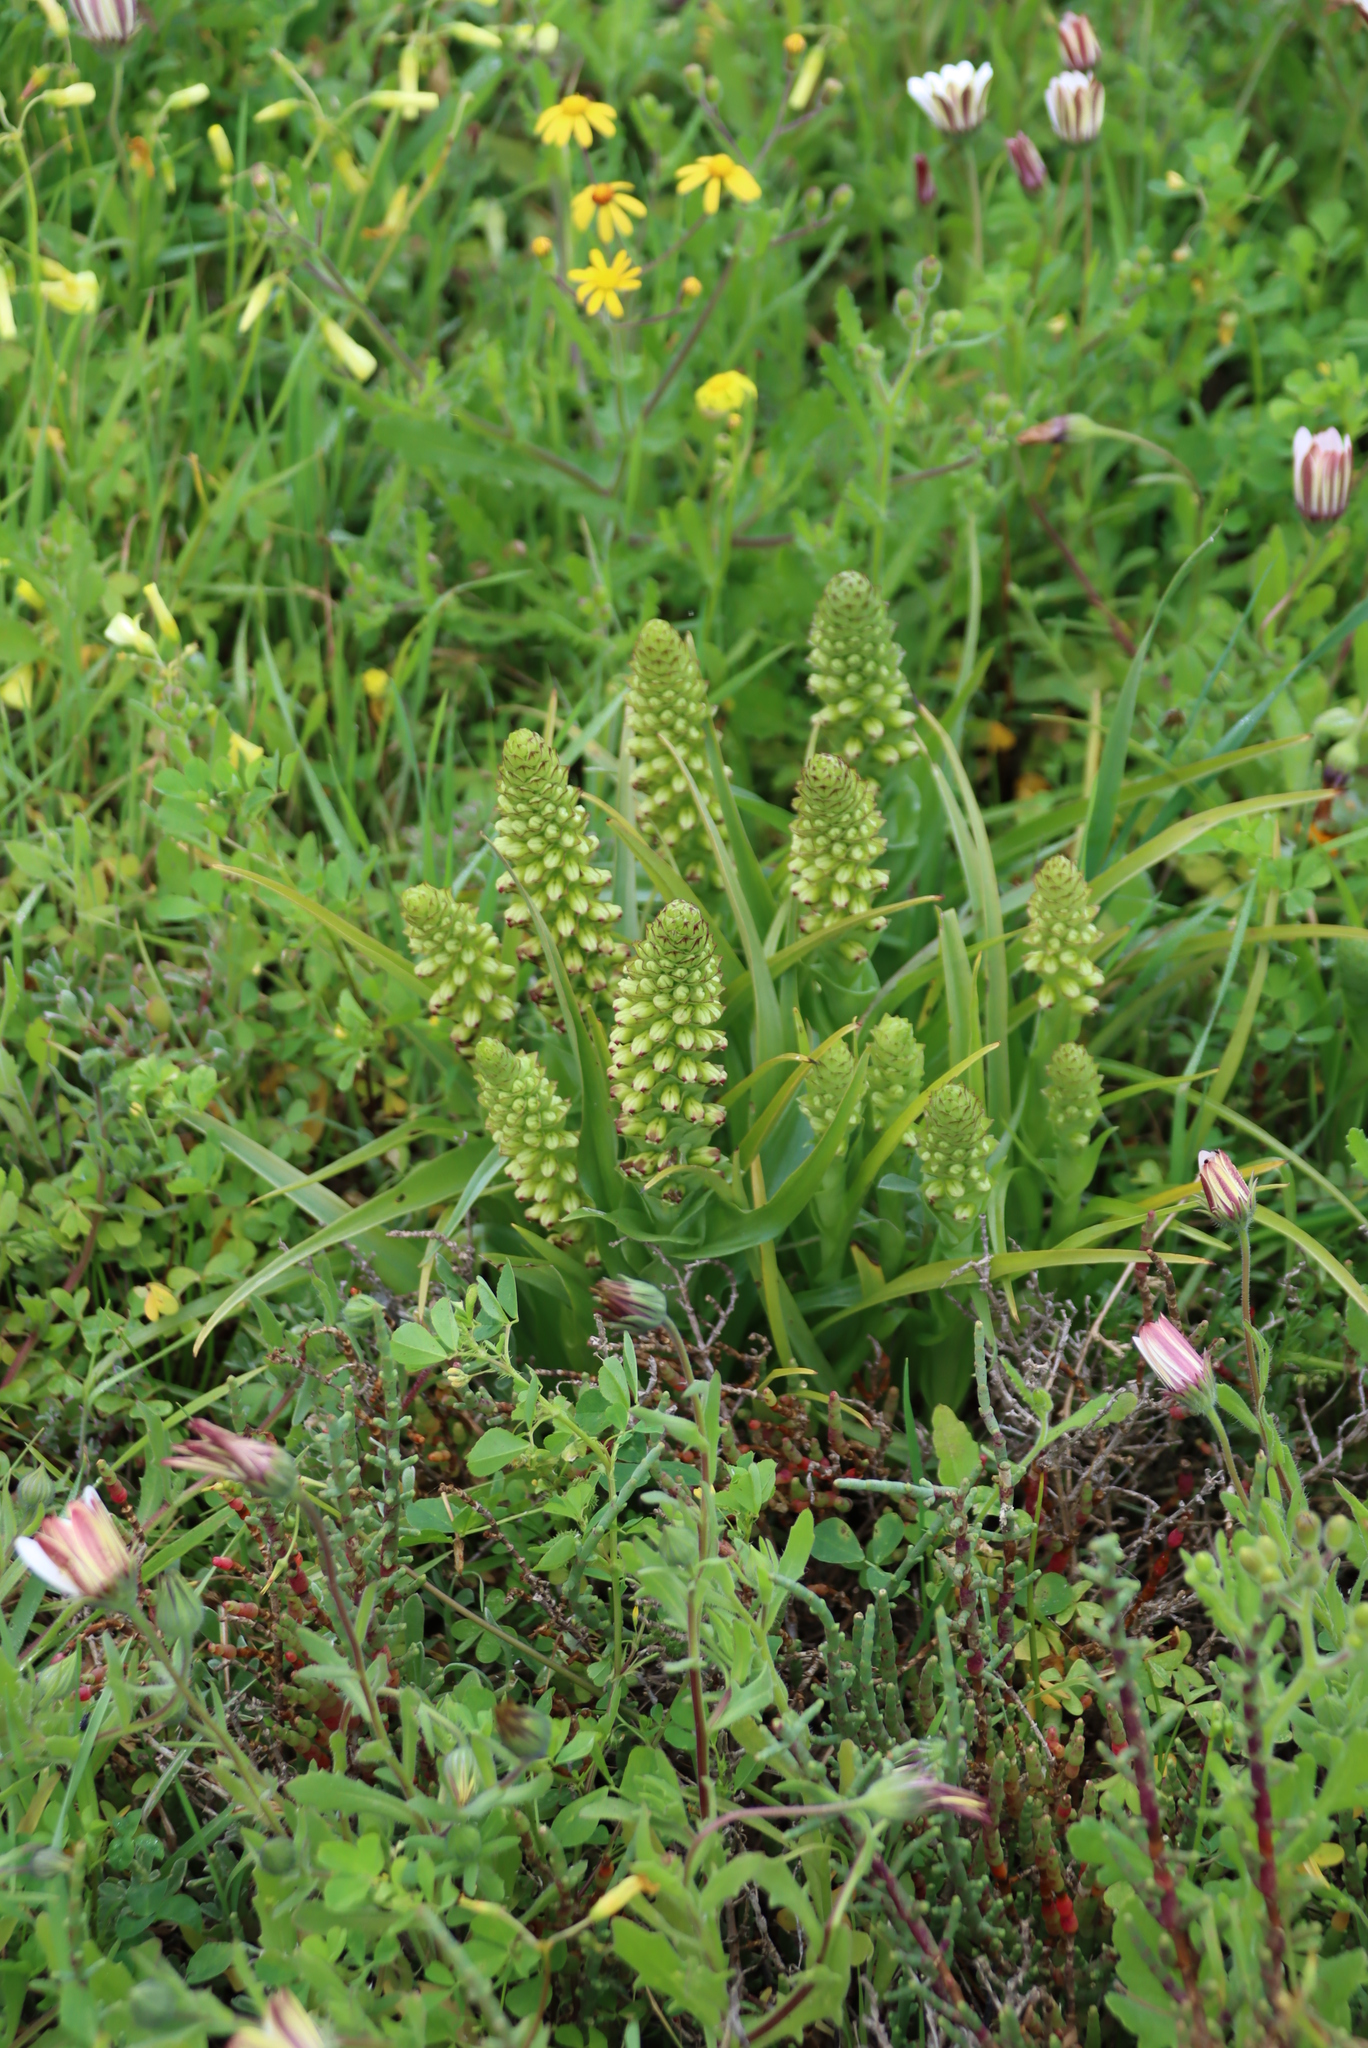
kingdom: Plantae
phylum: Tracheophyta
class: Liliopsida
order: Asparagales
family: Orchidaceae
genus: Corycium
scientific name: Corycium orobanchoides
